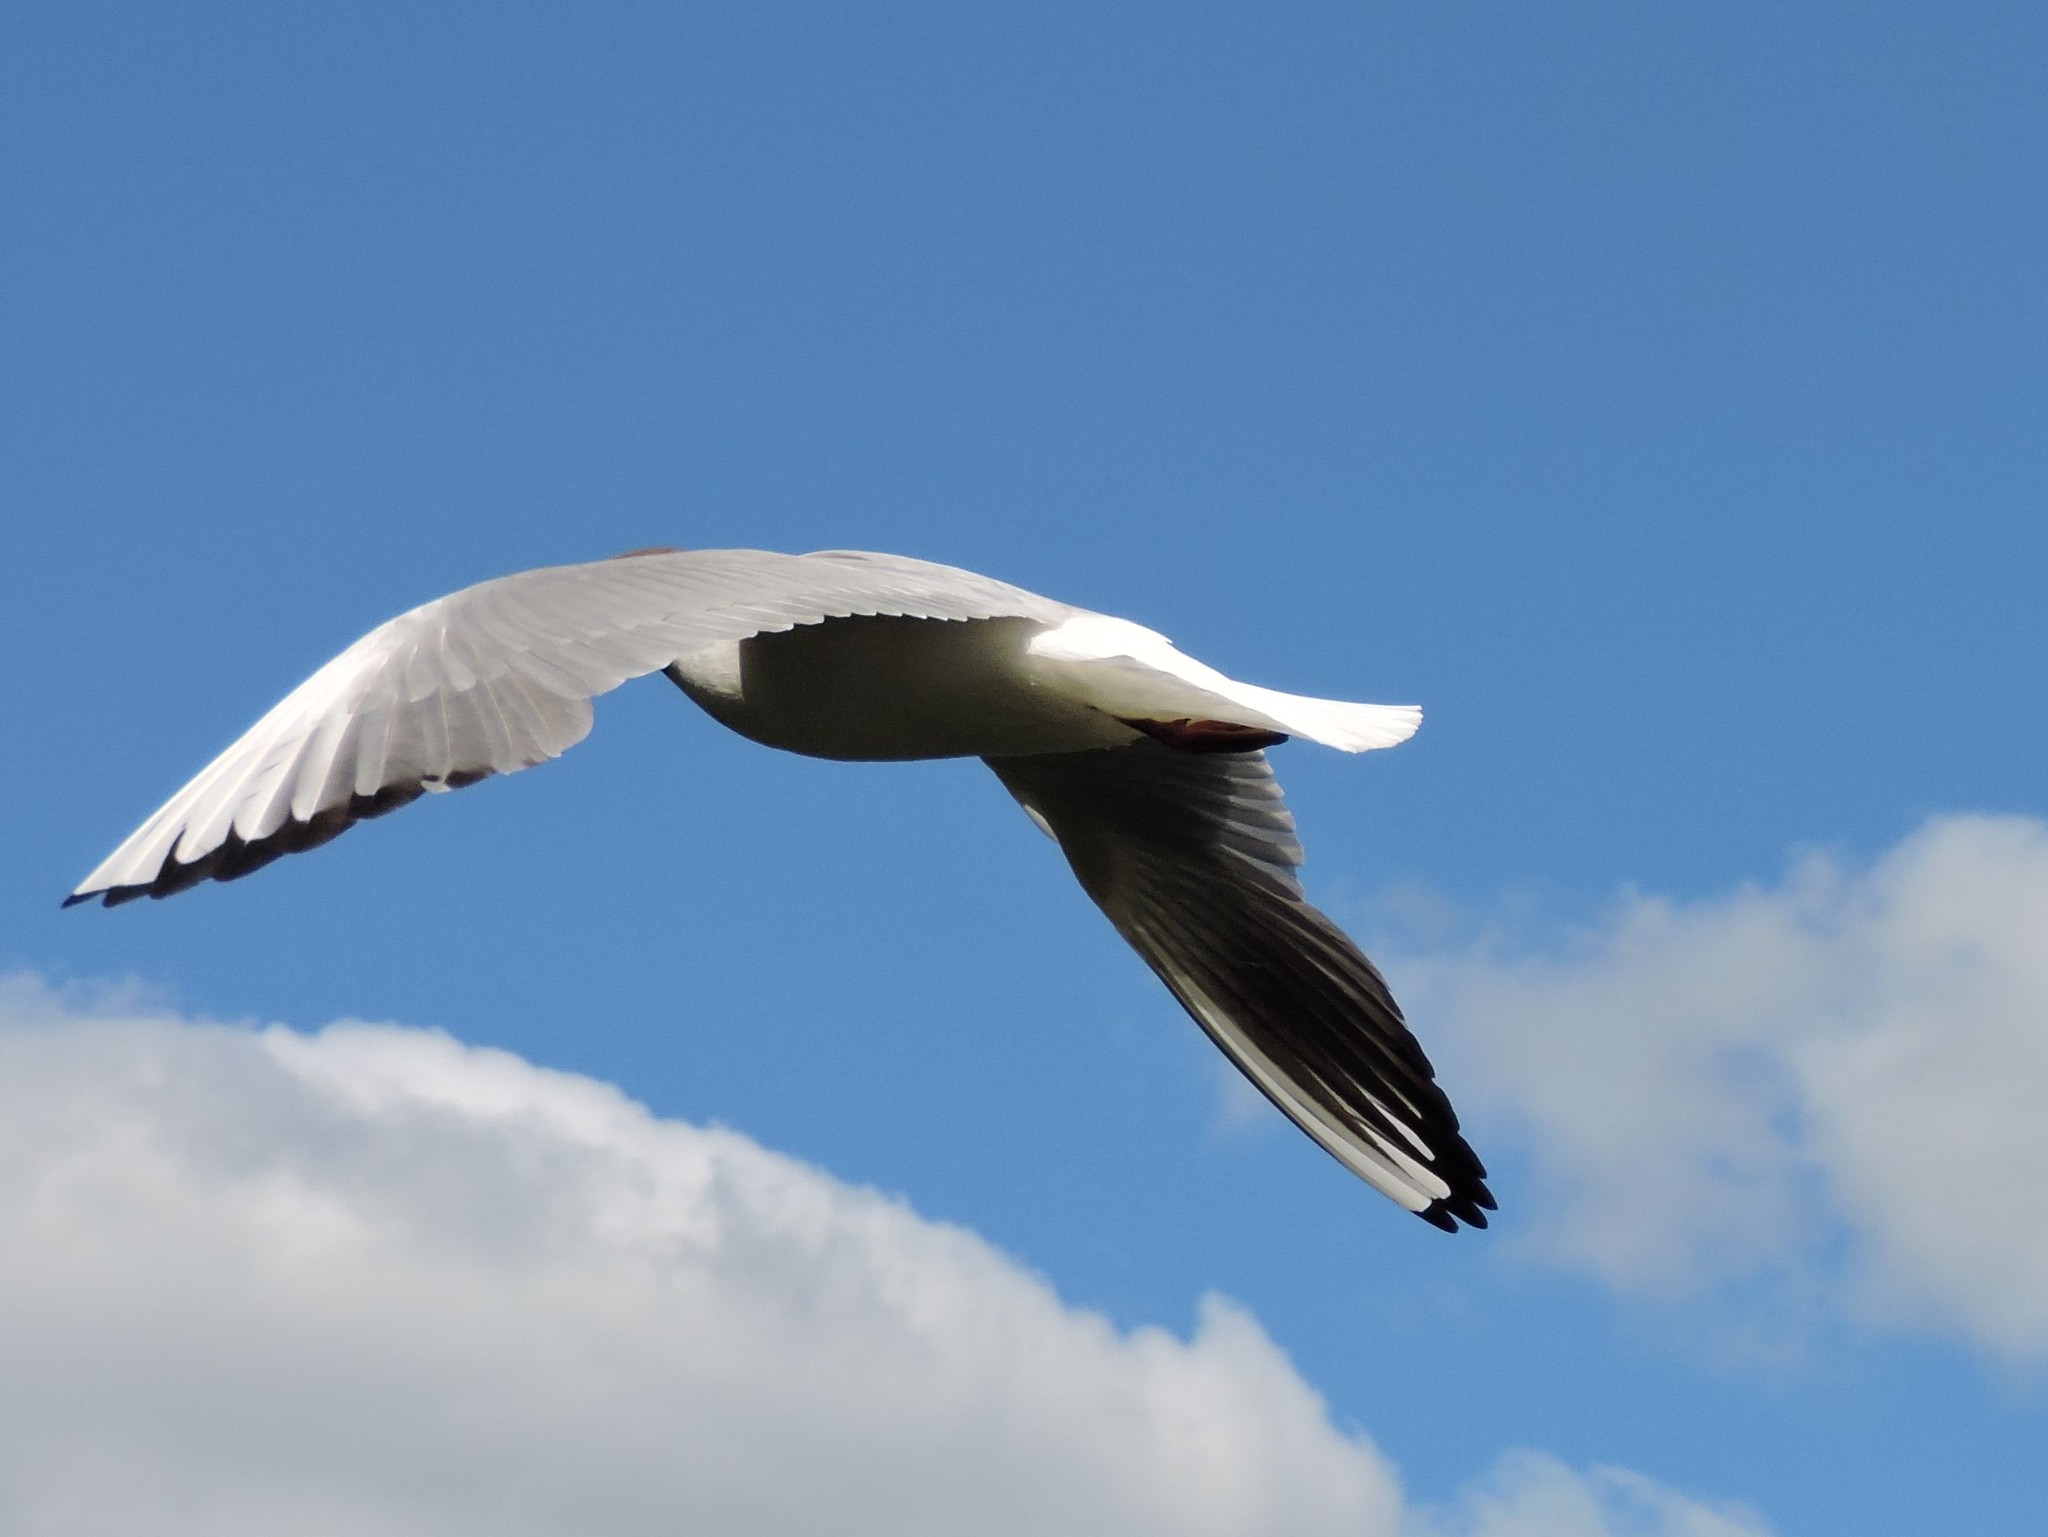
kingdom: Animalia
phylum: Chordata
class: Aves
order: Charadriiformes
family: Laridae
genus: Chroicocephalus
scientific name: Chroicocephalus ridibundus
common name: Black-headed gull
